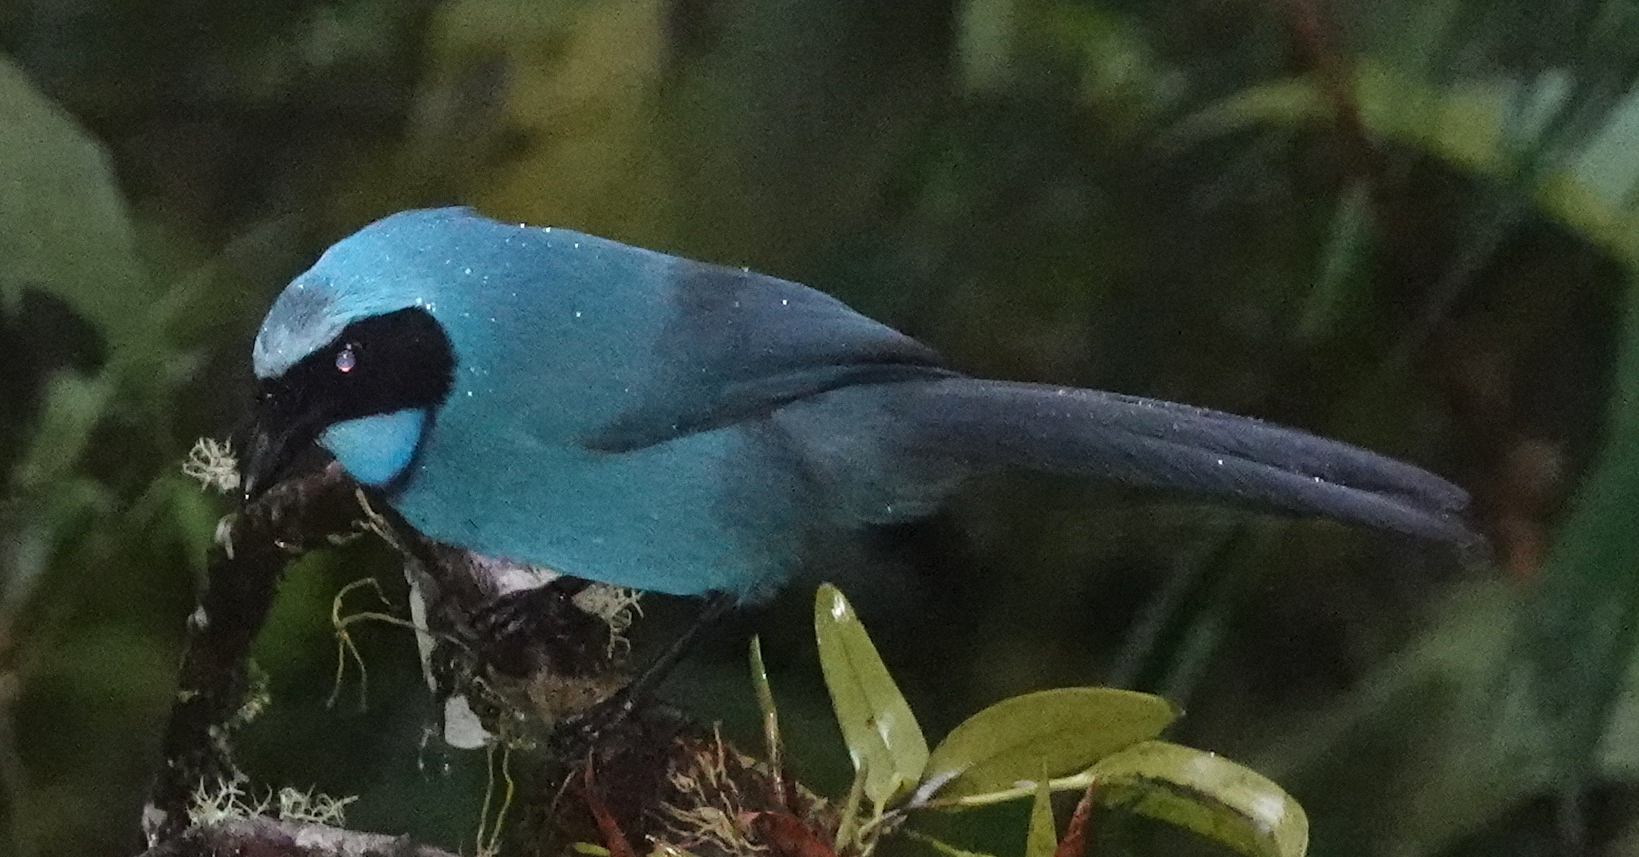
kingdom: Animalia
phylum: Chordata
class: Aves
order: Passeriformes
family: Corvidae
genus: Cyanolyca
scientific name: Cyanolyca turcosa
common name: Turquoise jay
